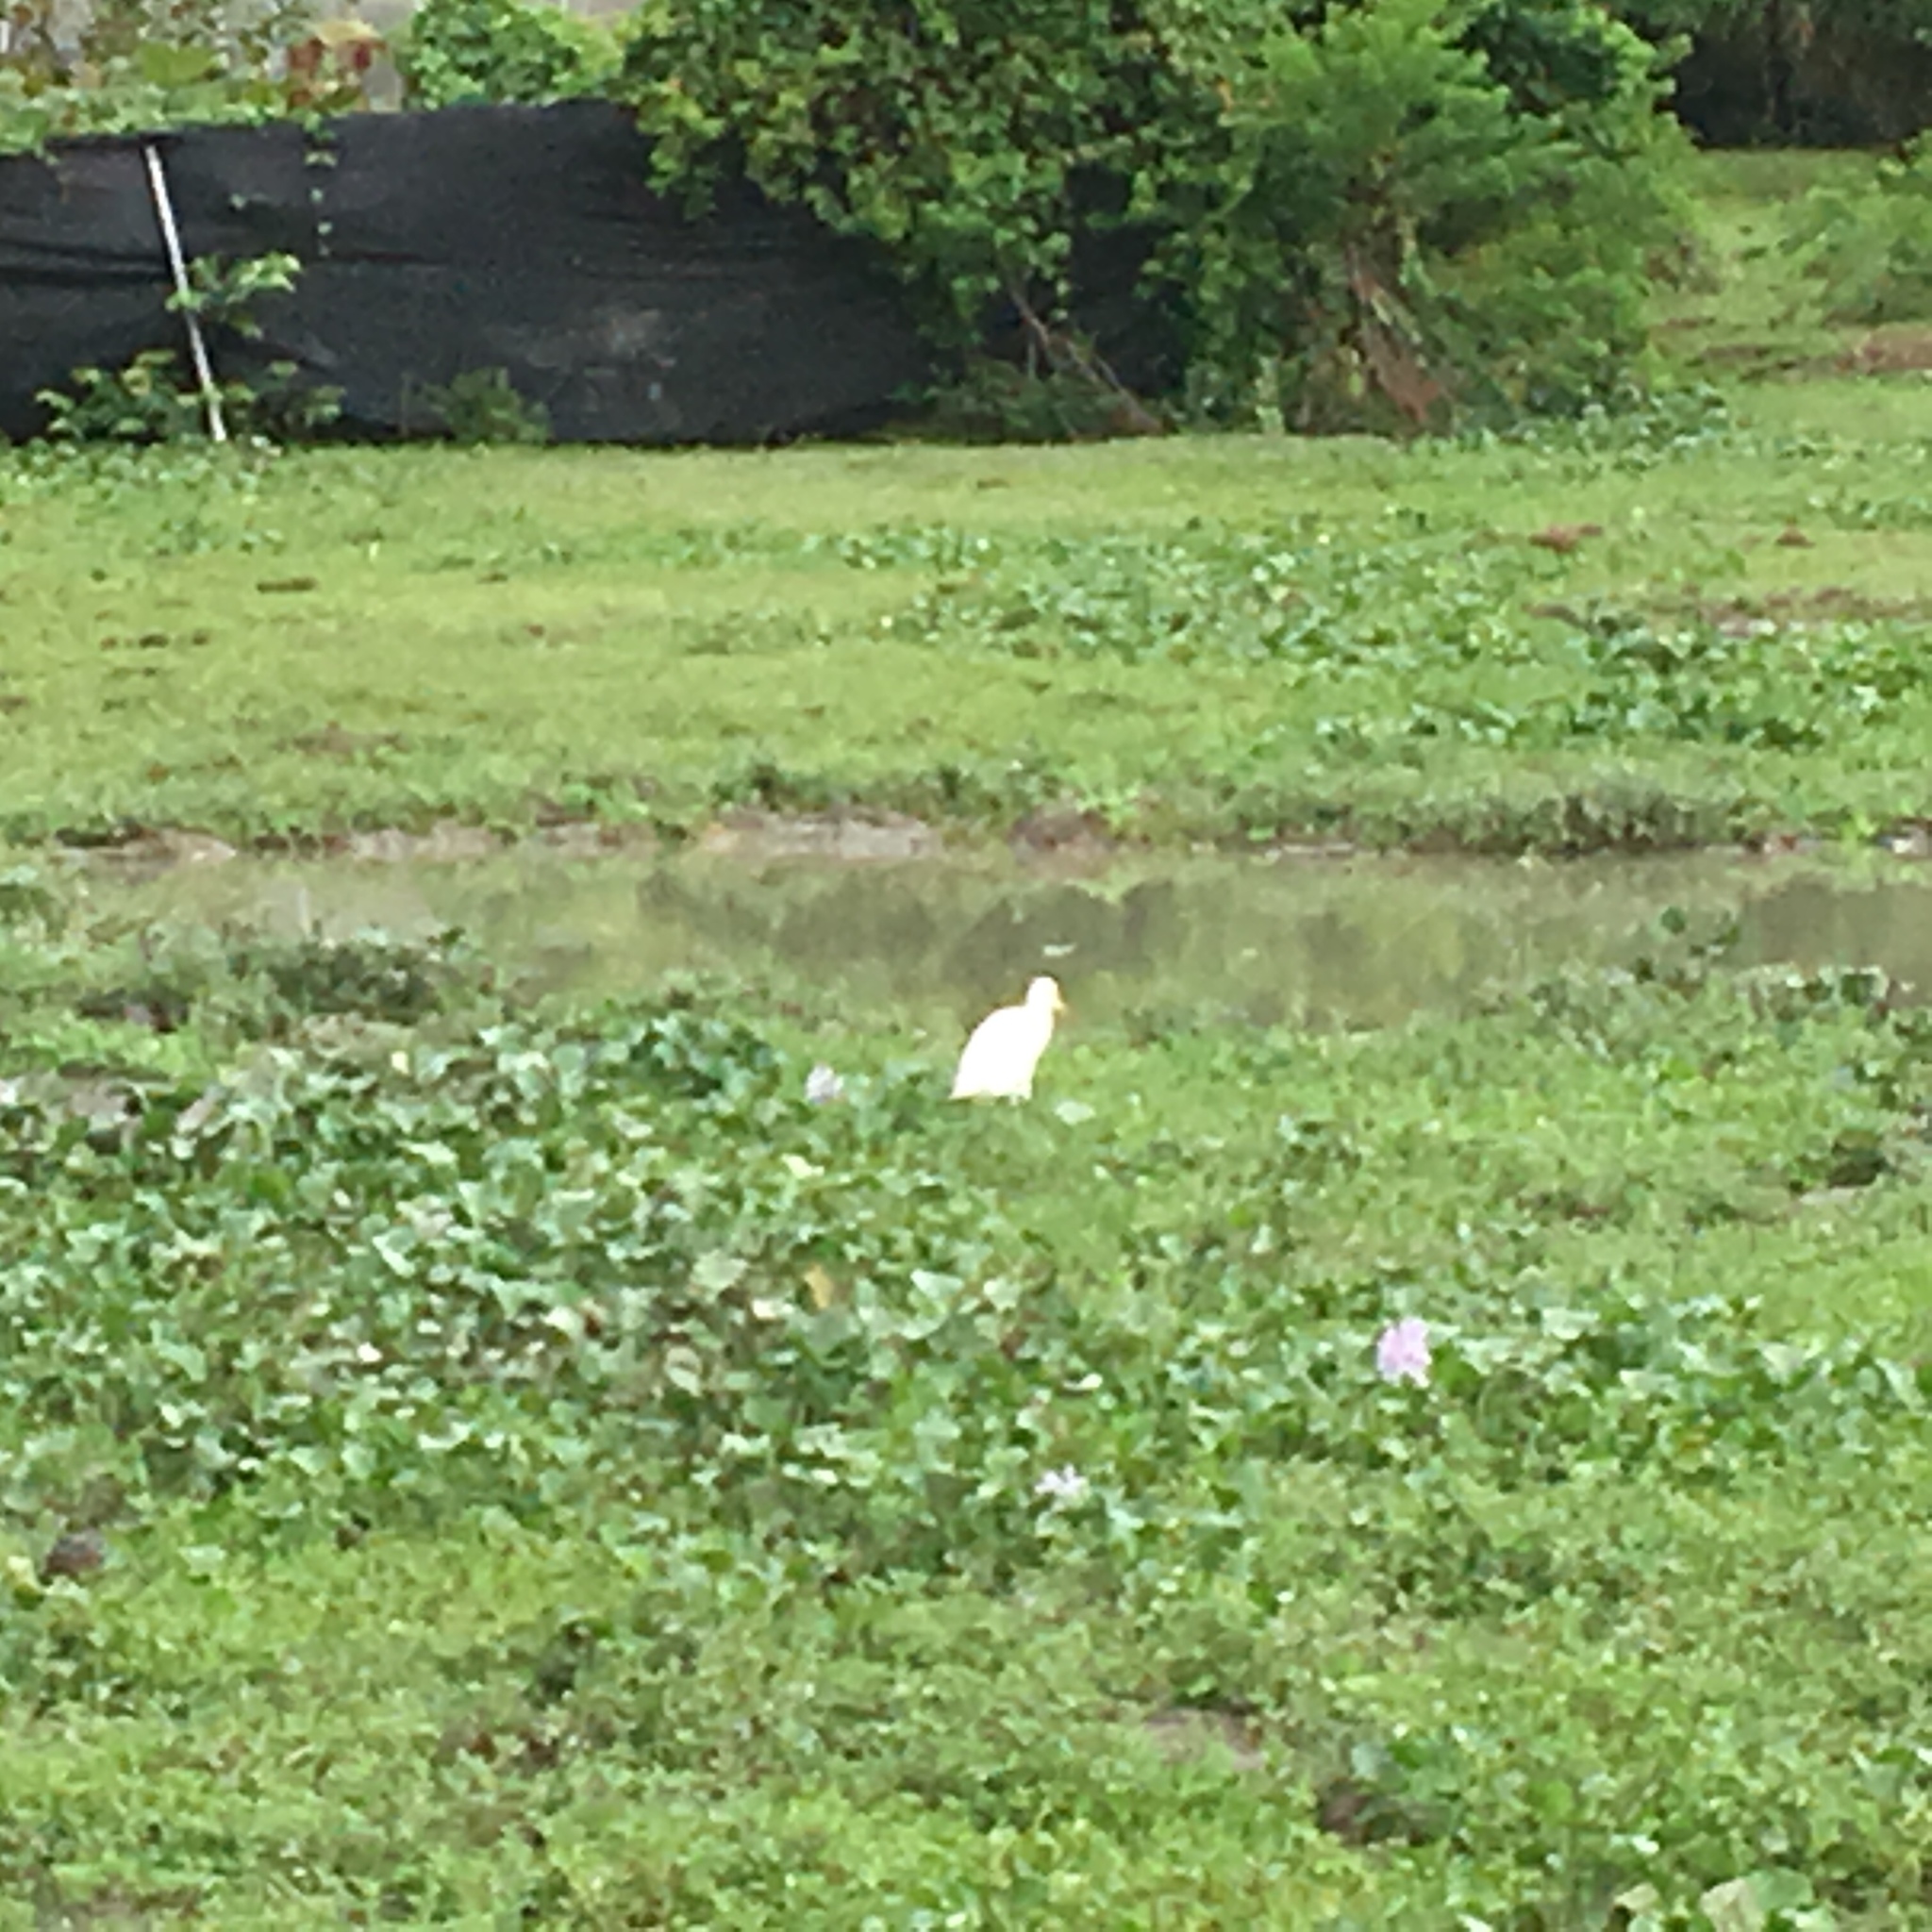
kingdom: Animalia
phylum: Chordata
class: Aves
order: Pelecaniformes
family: Ardeidae
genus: Bubulcus
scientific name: Bubulcus coromandus
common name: Eastern cattle egret
